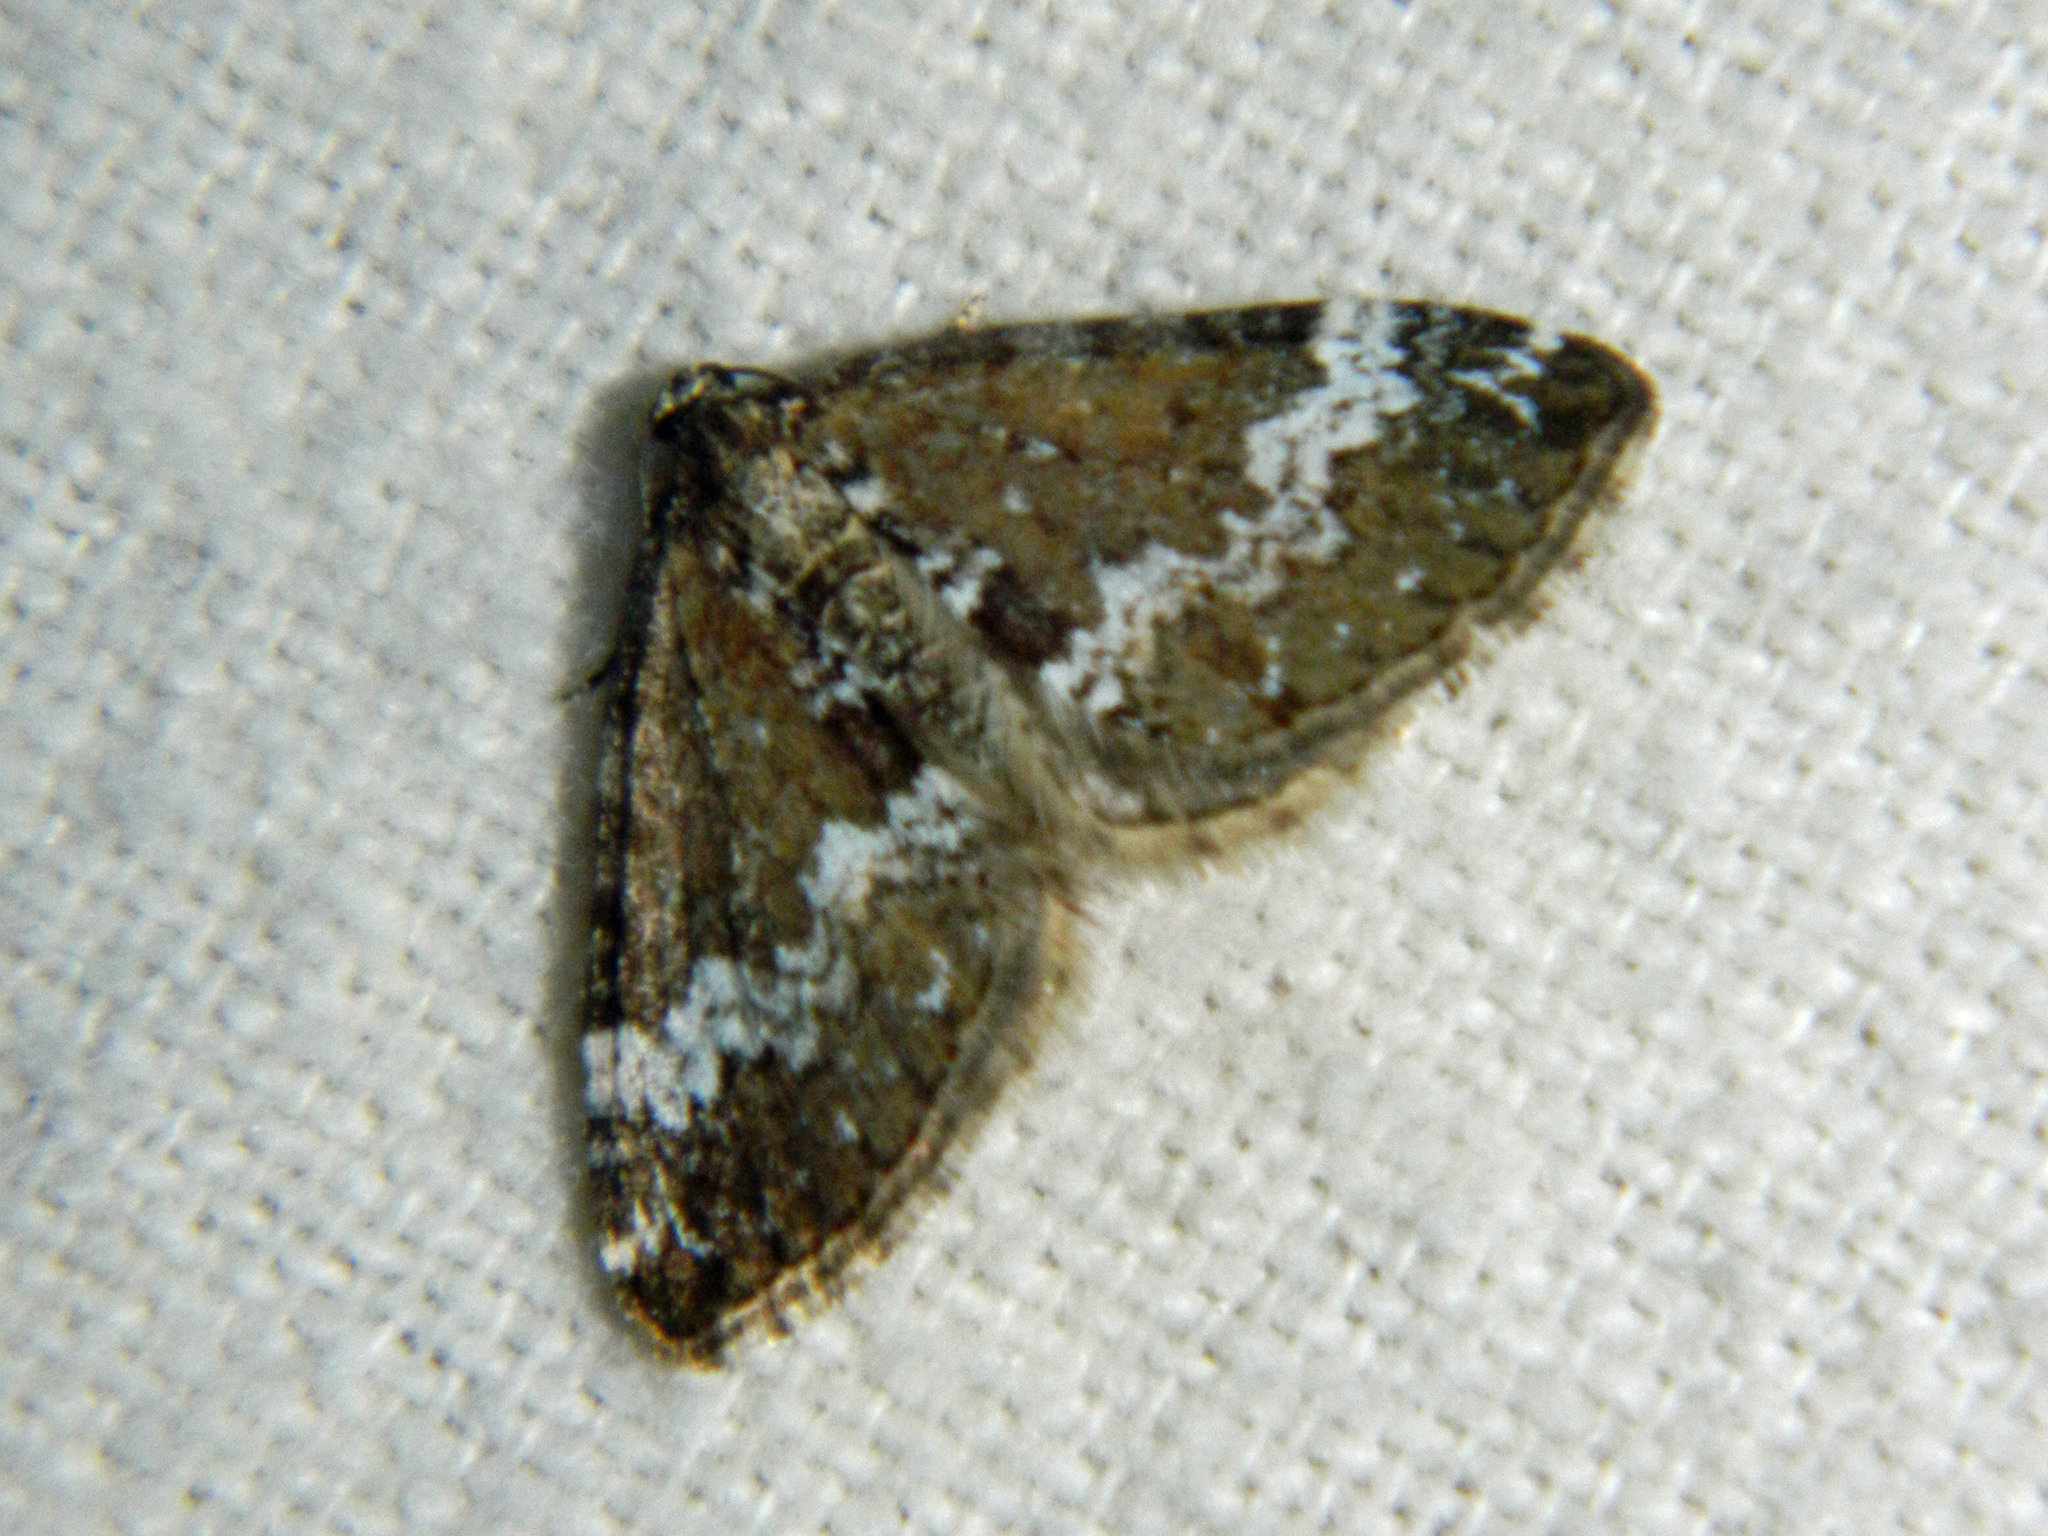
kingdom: Animalia
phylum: Arthropoda
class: Insecta
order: Lepidoptera
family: Geometridae
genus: Perizoma
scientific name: Perizoma alchemillata
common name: Small rivulet
